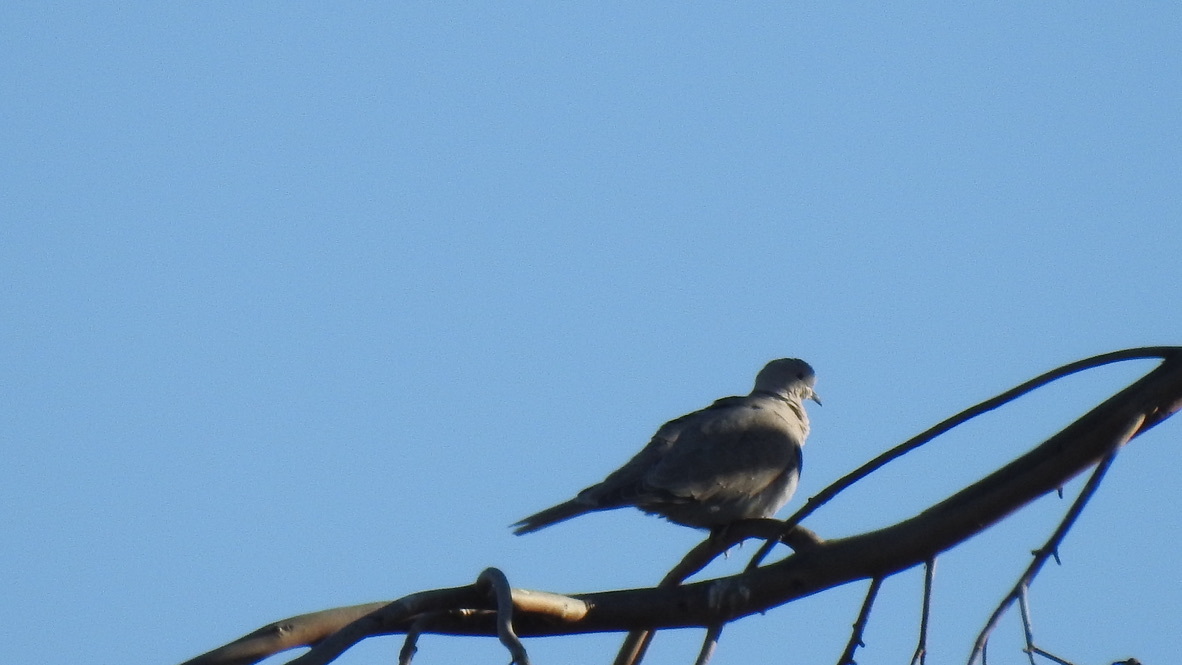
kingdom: Animalia
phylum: Chordata
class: Aves
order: Columbiformes
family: Columbidae
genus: Streptopelia
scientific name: Streptopelia decaocto
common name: Eurasian collared dove
